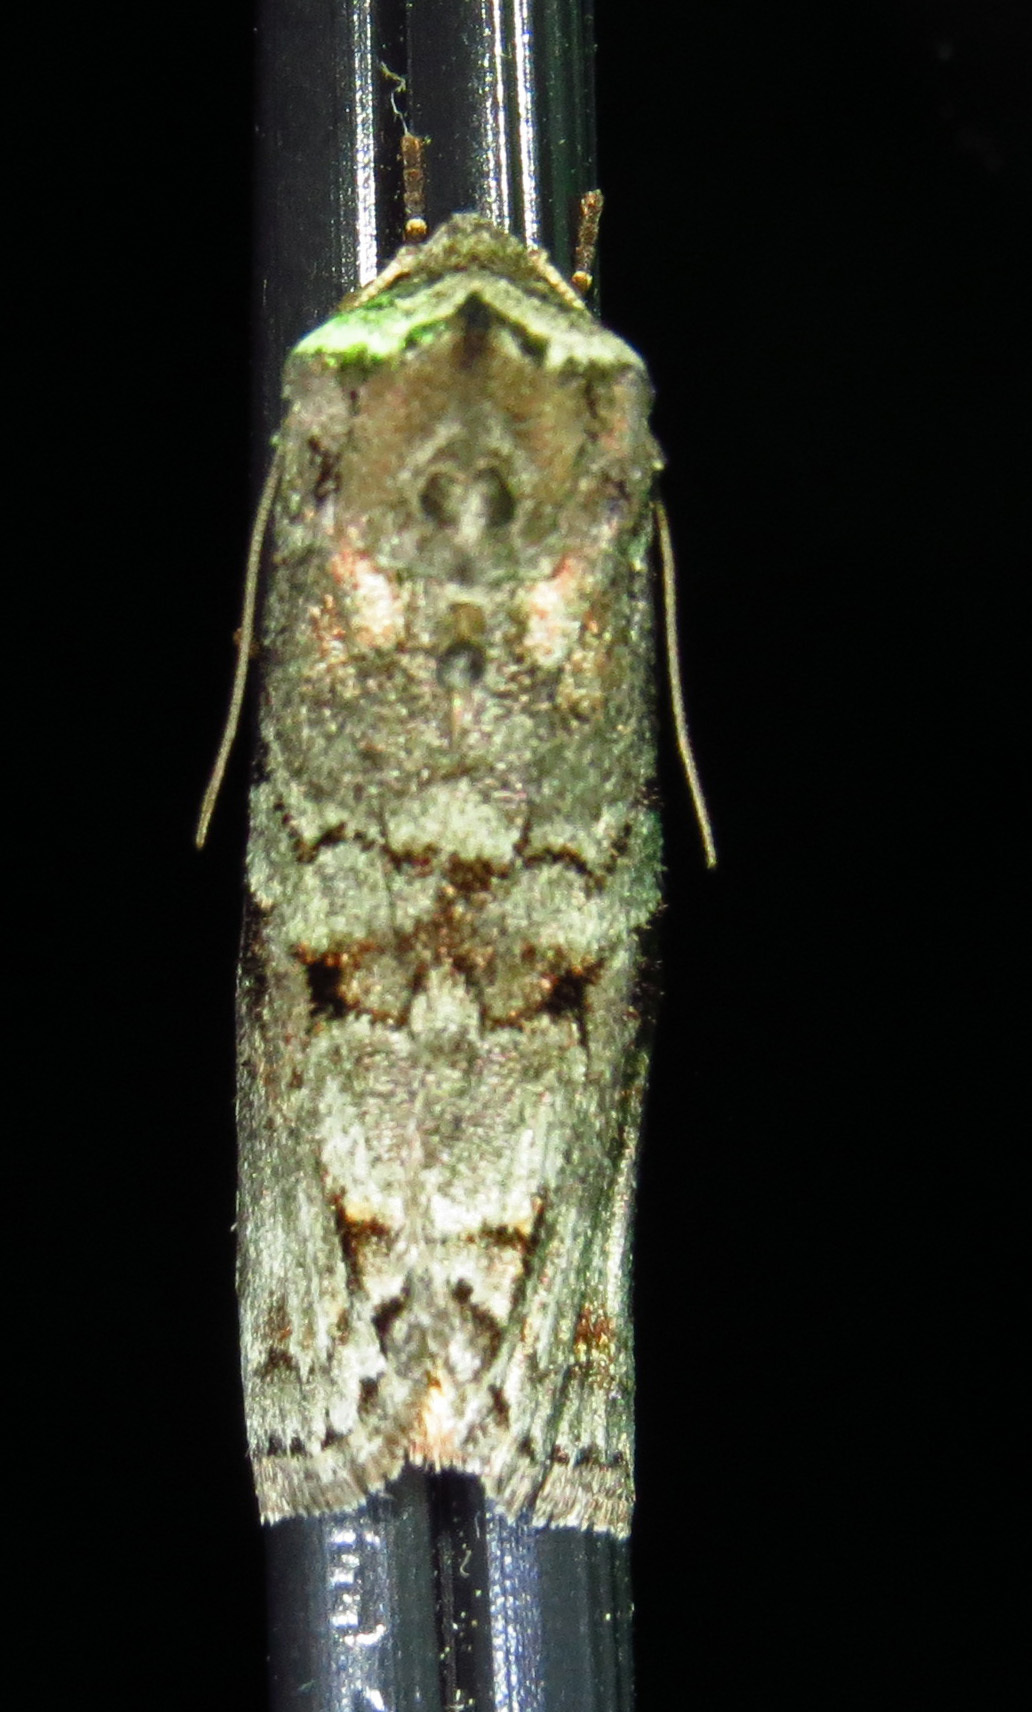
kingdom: Animalia
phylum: Arthropoda
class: Insecta
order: Lepidoptera
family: Noctuidae
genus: Egira
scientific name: Egira alternans
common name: Alternate woodling
